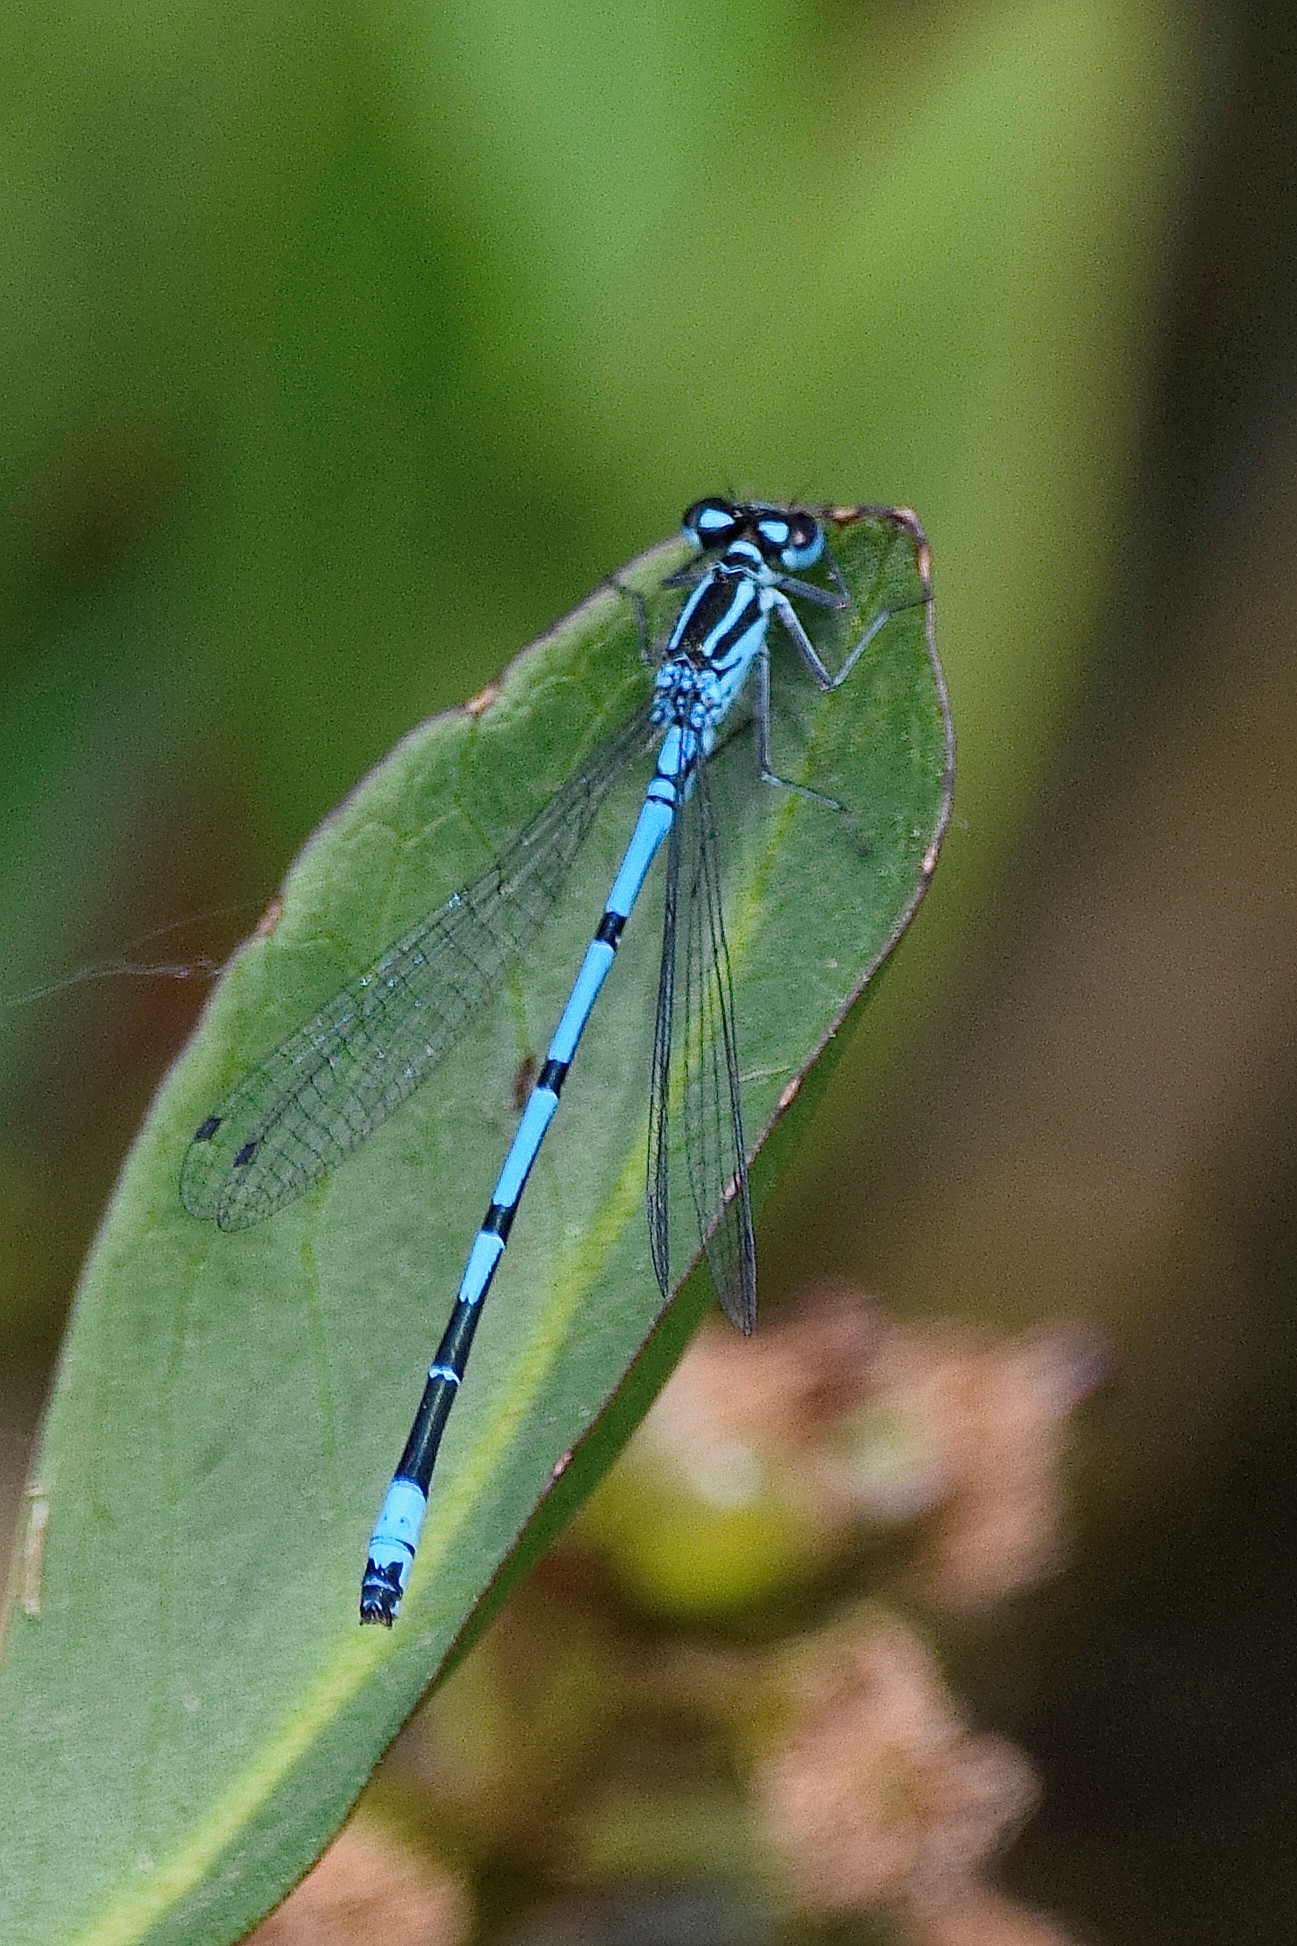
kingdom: Animalia
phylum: Arthropoda
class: Insecta
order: Odonata
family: Coenagrionidae
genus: Coenagrion
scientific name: Coenagrion puella
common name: Azure damselfly
